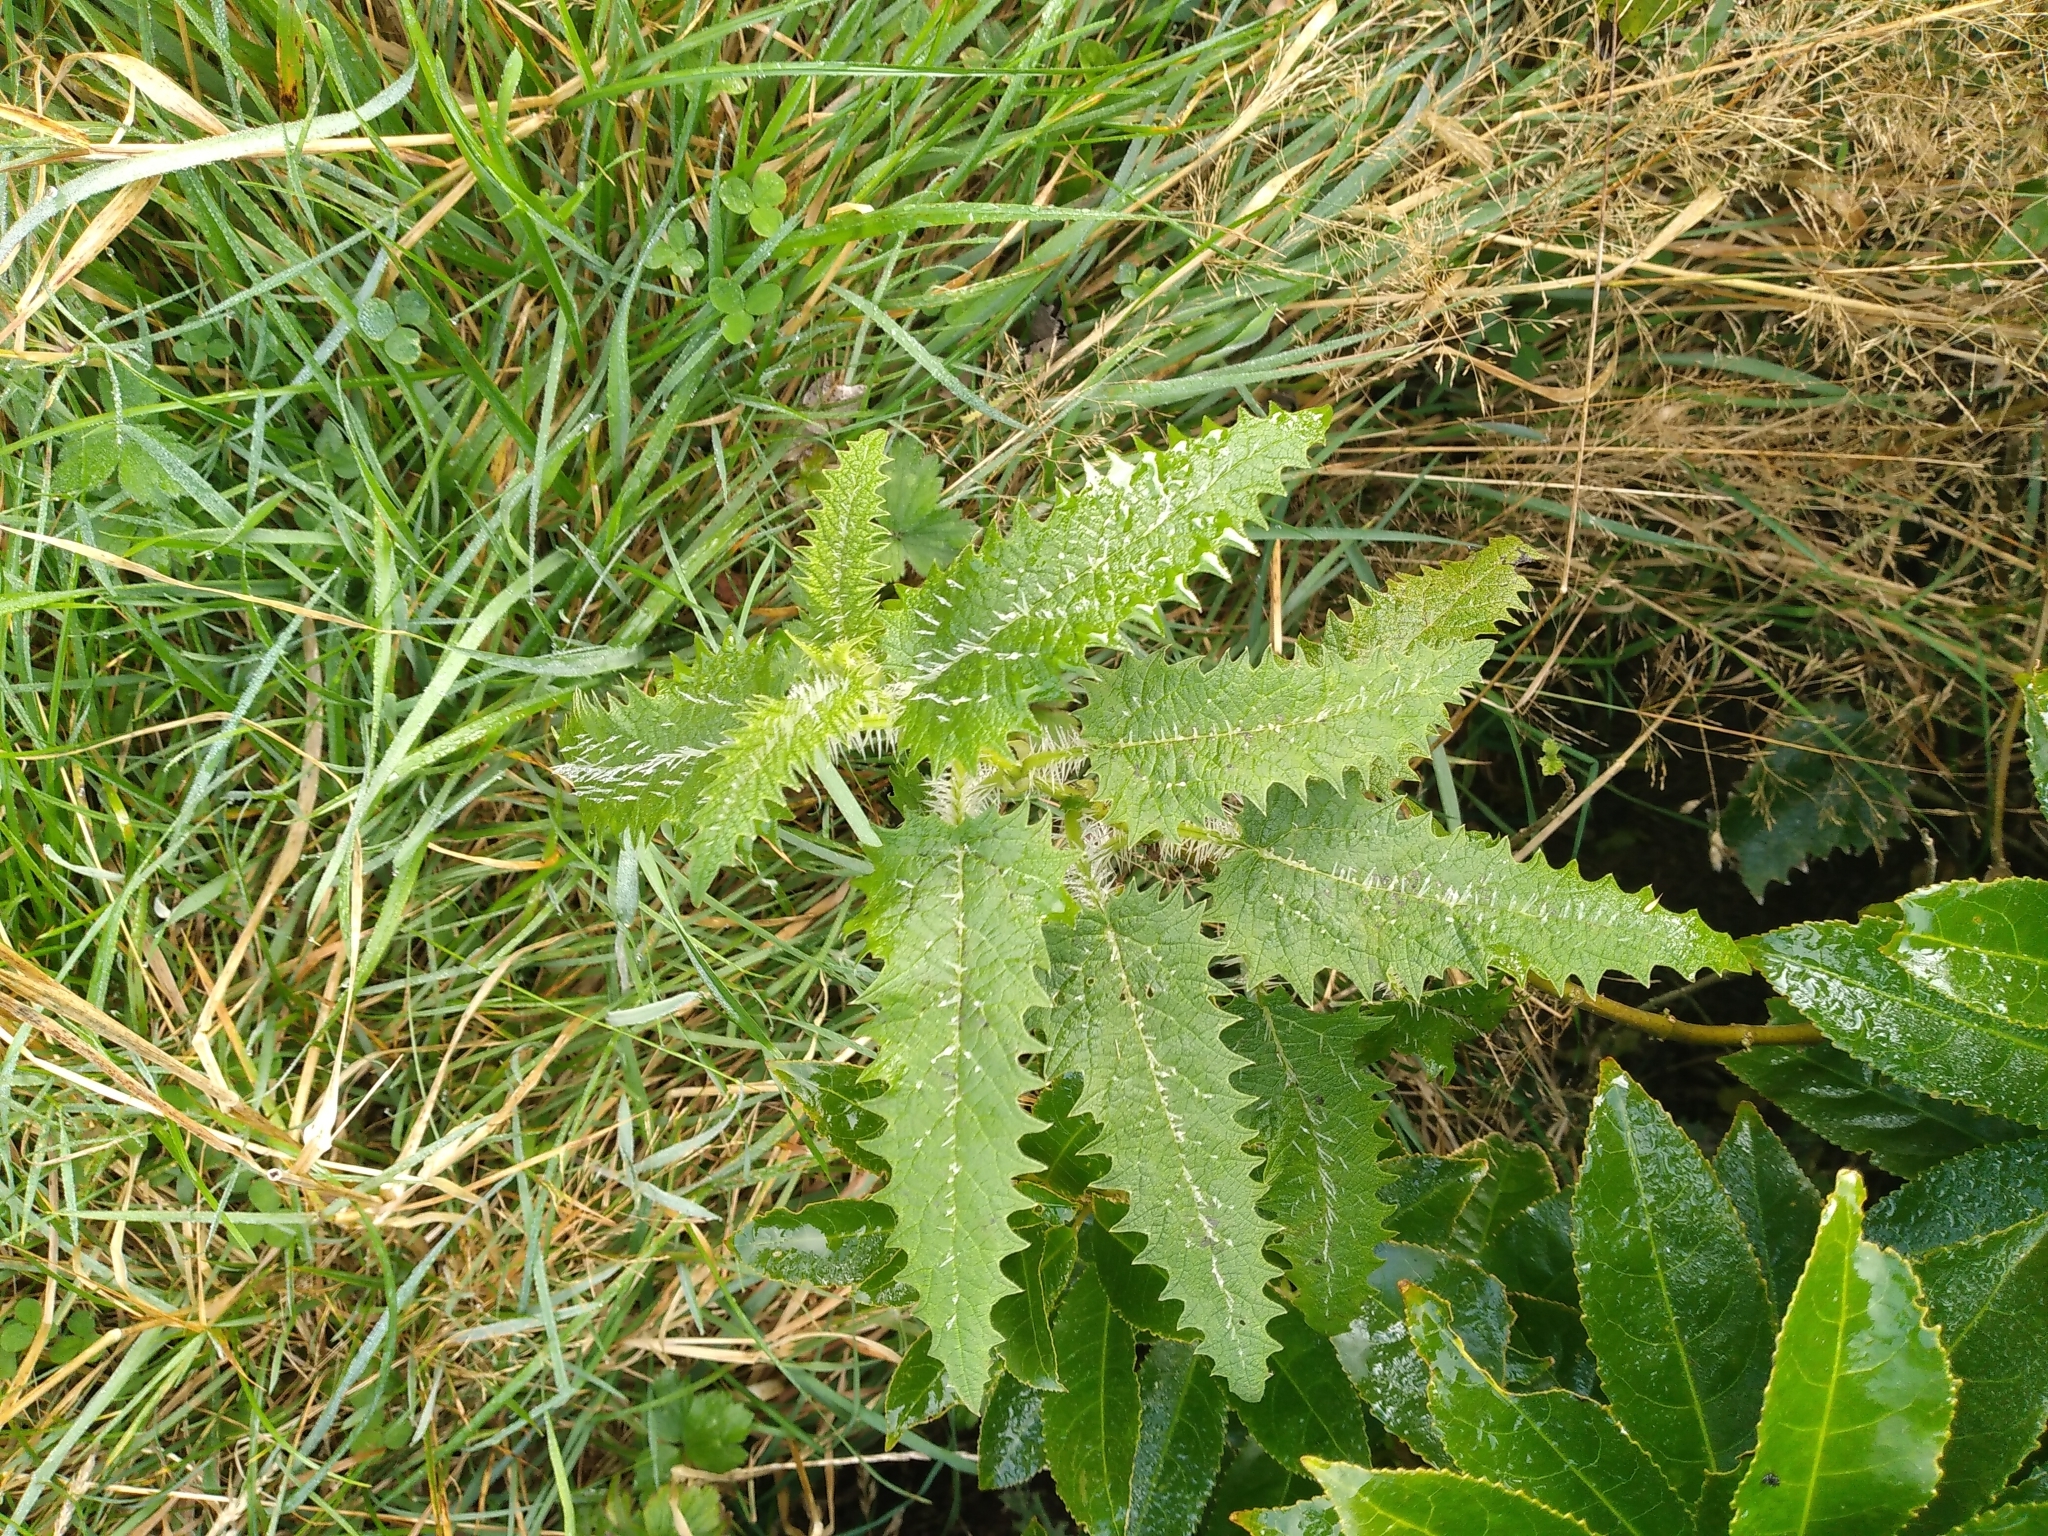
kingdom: Plantae
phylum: Tracheophyta
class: Magnoliopsida
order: Rosales
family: Urticaceae
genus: Urtica
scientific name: Urtica ferox
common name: Tree nettle
